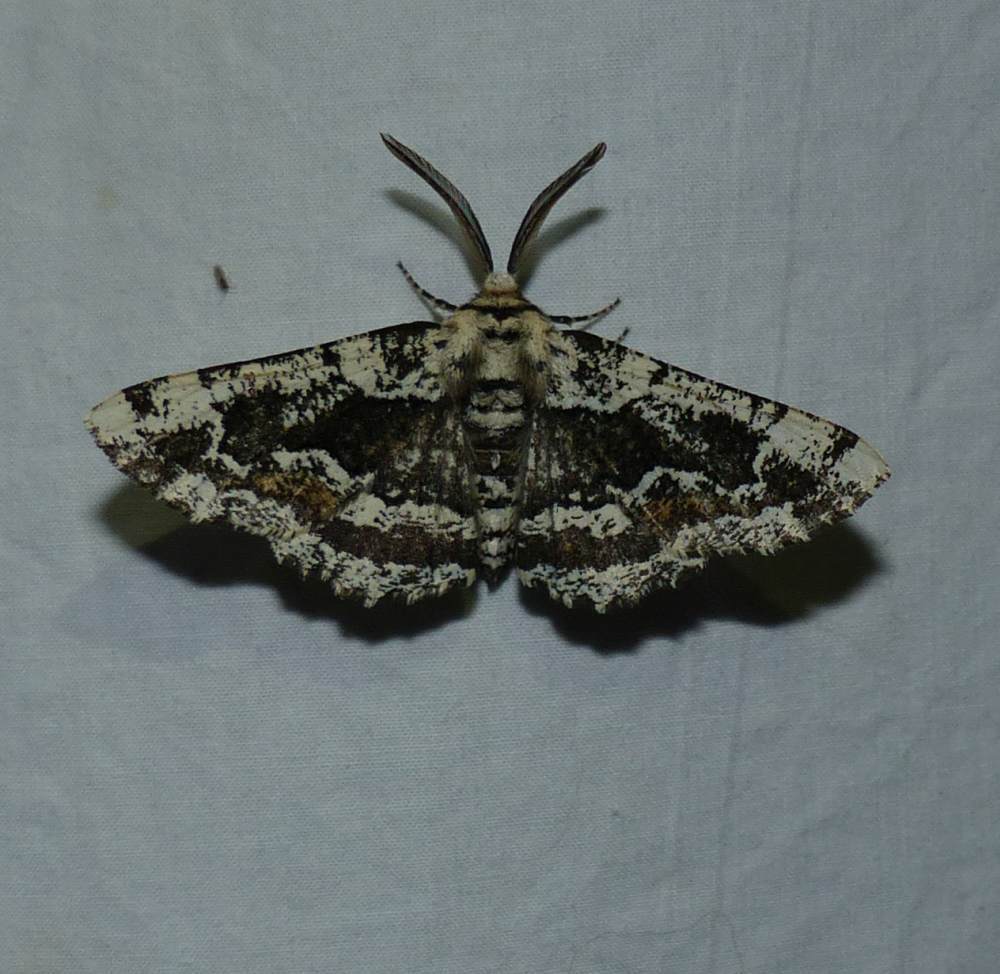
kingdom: Animalia
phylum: Arthropoda
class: Insecta
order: Lepidoptera
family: Geometridae
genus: Phaeoura
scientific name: Phaeoura quernaria
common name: Oak beauty
